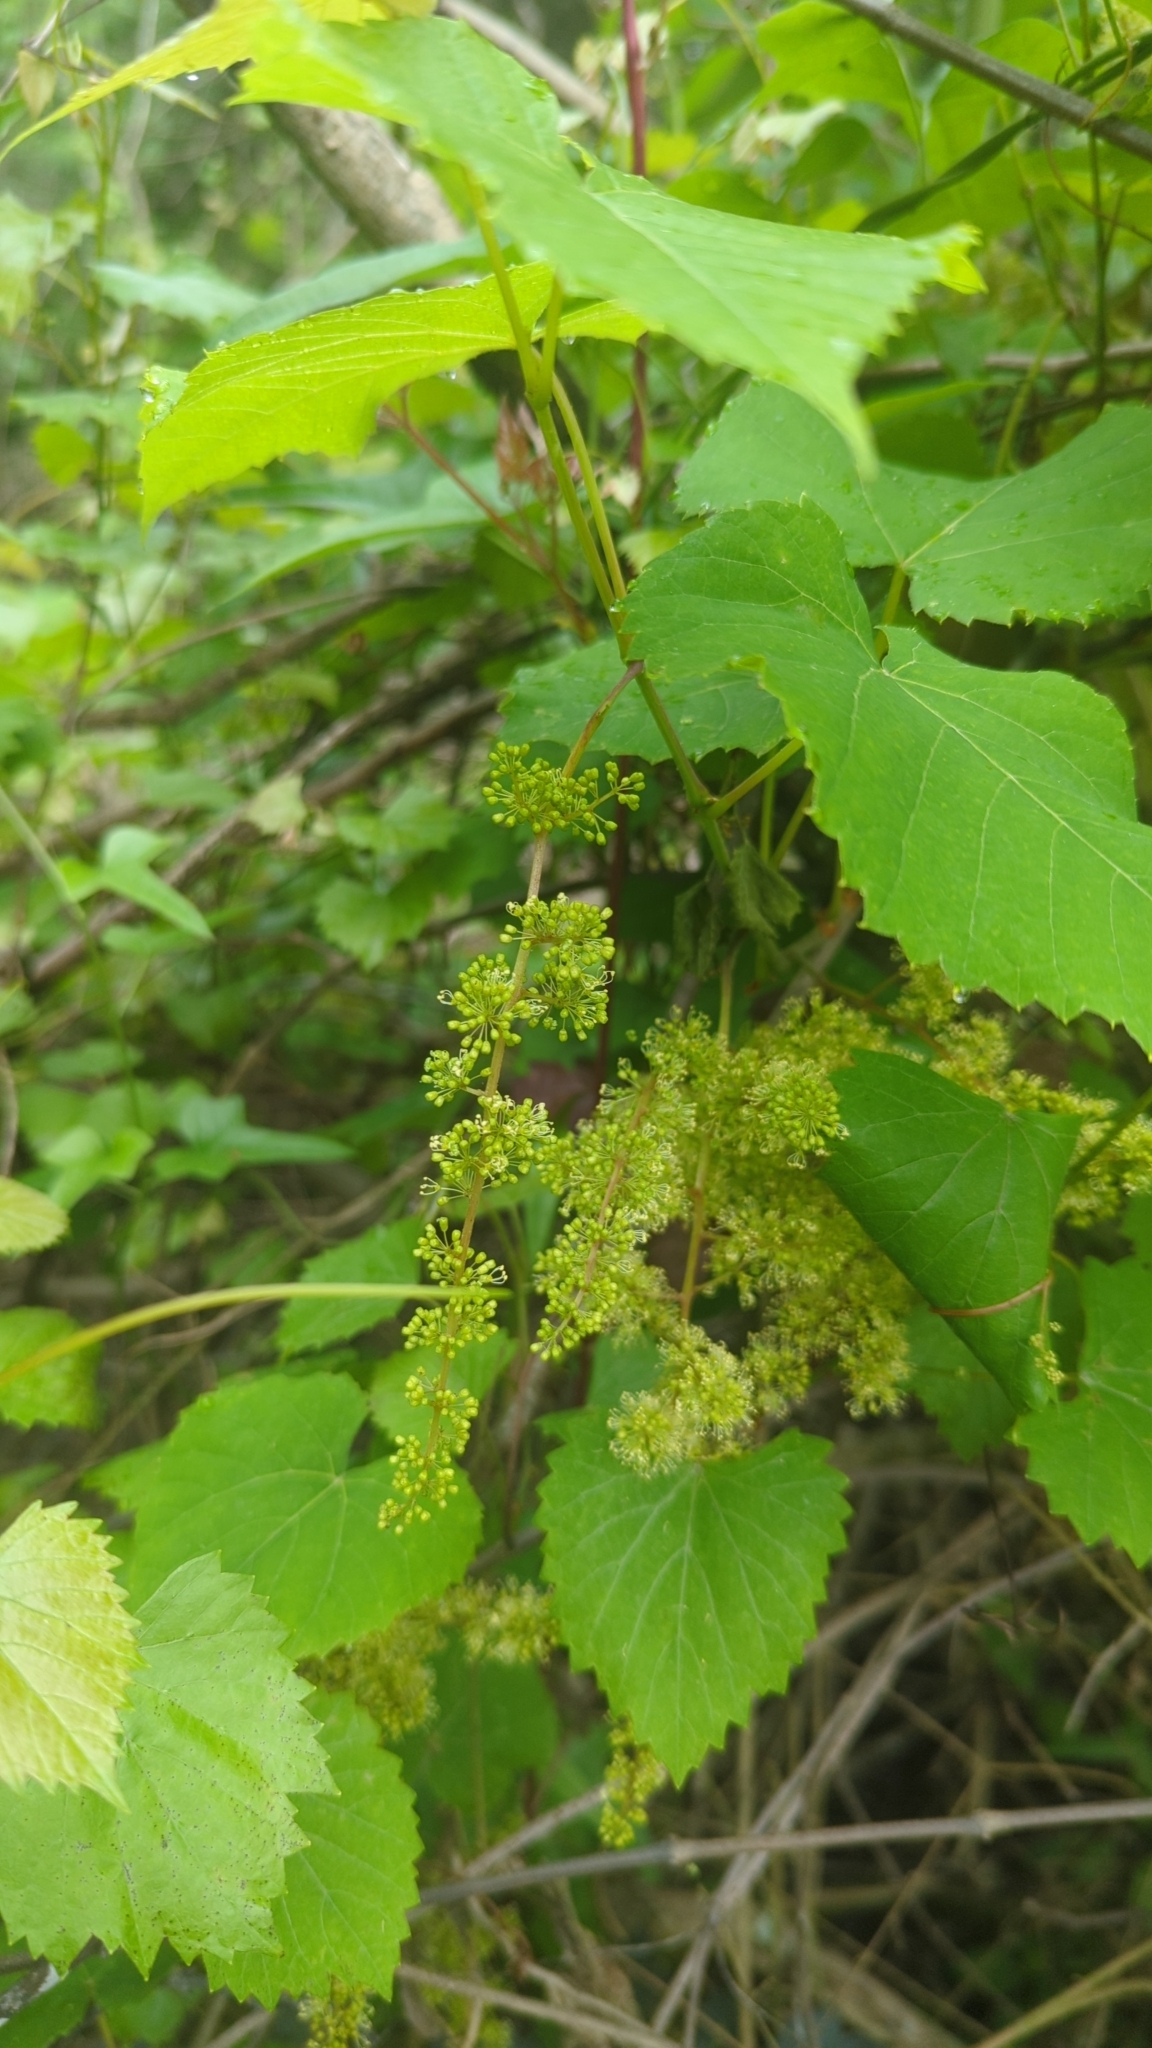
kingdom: Plantae
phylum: Tracheophyta
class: Magnoliopsida
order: Vitales
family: Vitaceae
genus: Vitis
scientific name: Vitis rotundifolia
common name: Muscadine grape
